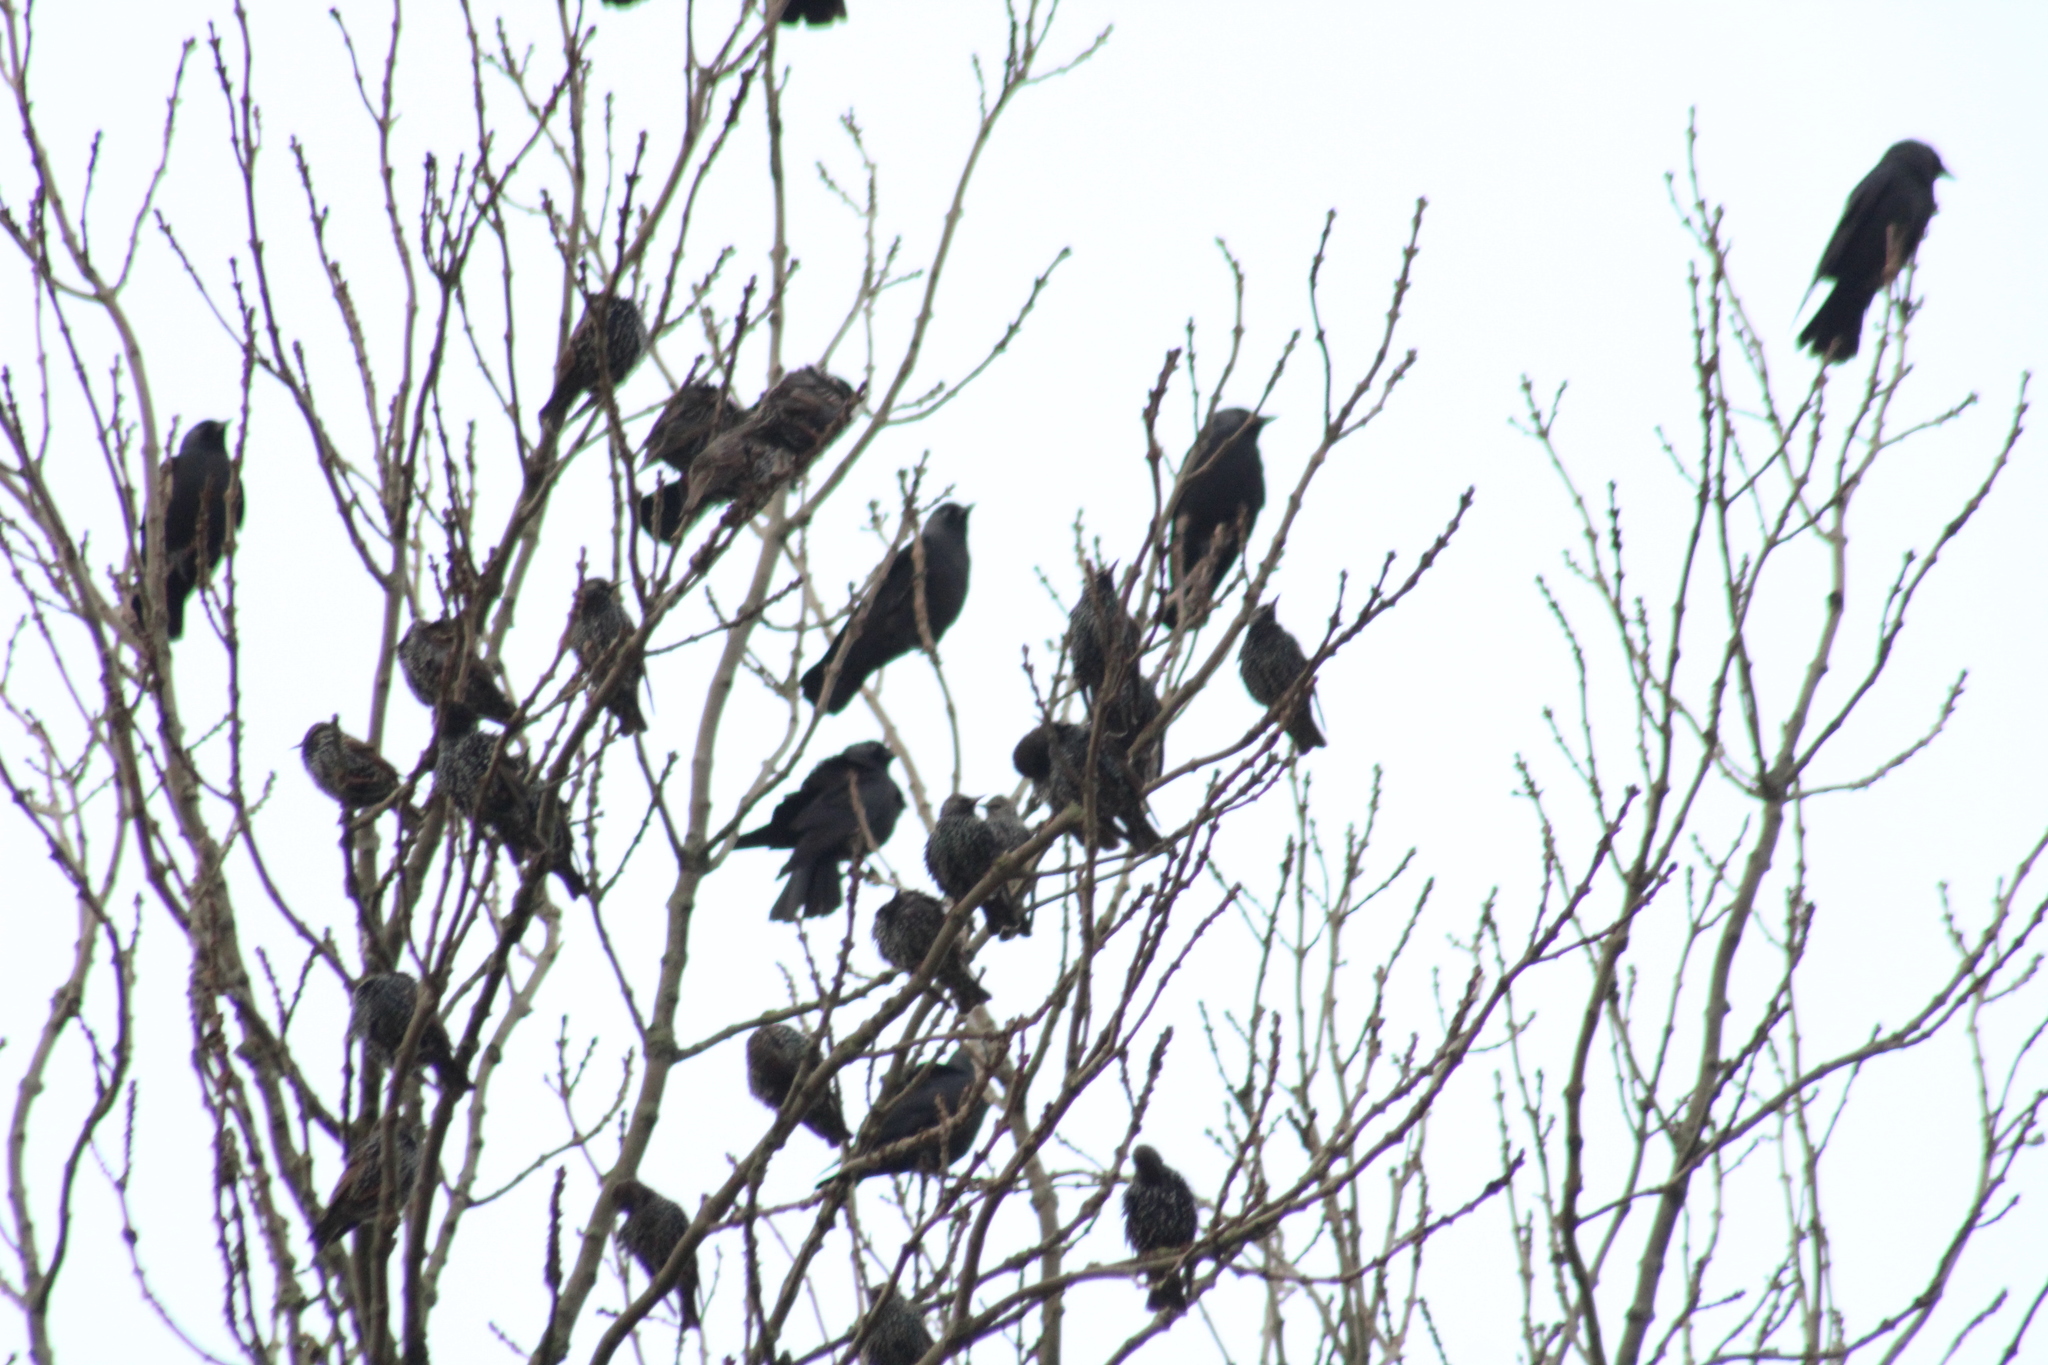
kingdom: Animalia
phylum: Chordata
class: Aves
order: Passeriformes
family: Sturnidae
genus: Sturnus
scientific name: Sturnus vulgaris
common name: Common starling
